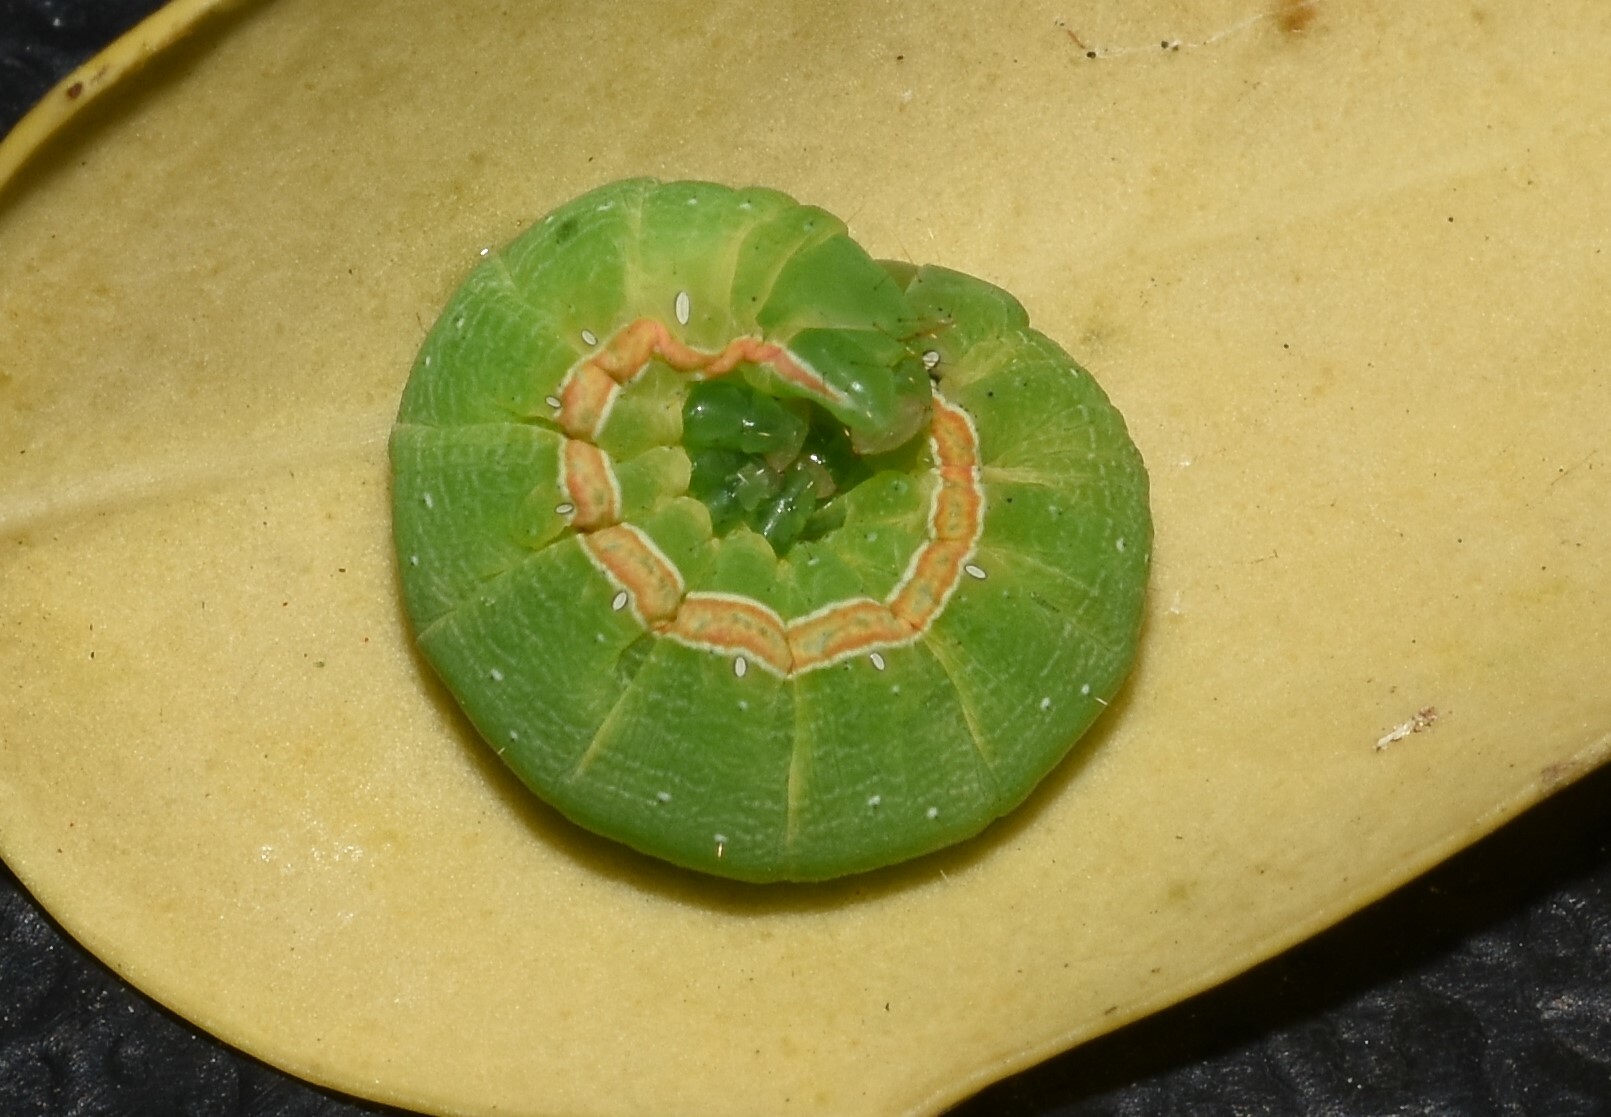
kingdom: Animalia
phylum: Arthropoda
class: Insecta
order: Lepidoptera
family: Noctuidae
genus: Anicla
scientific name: Anicla infecta
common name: Green cutworm
